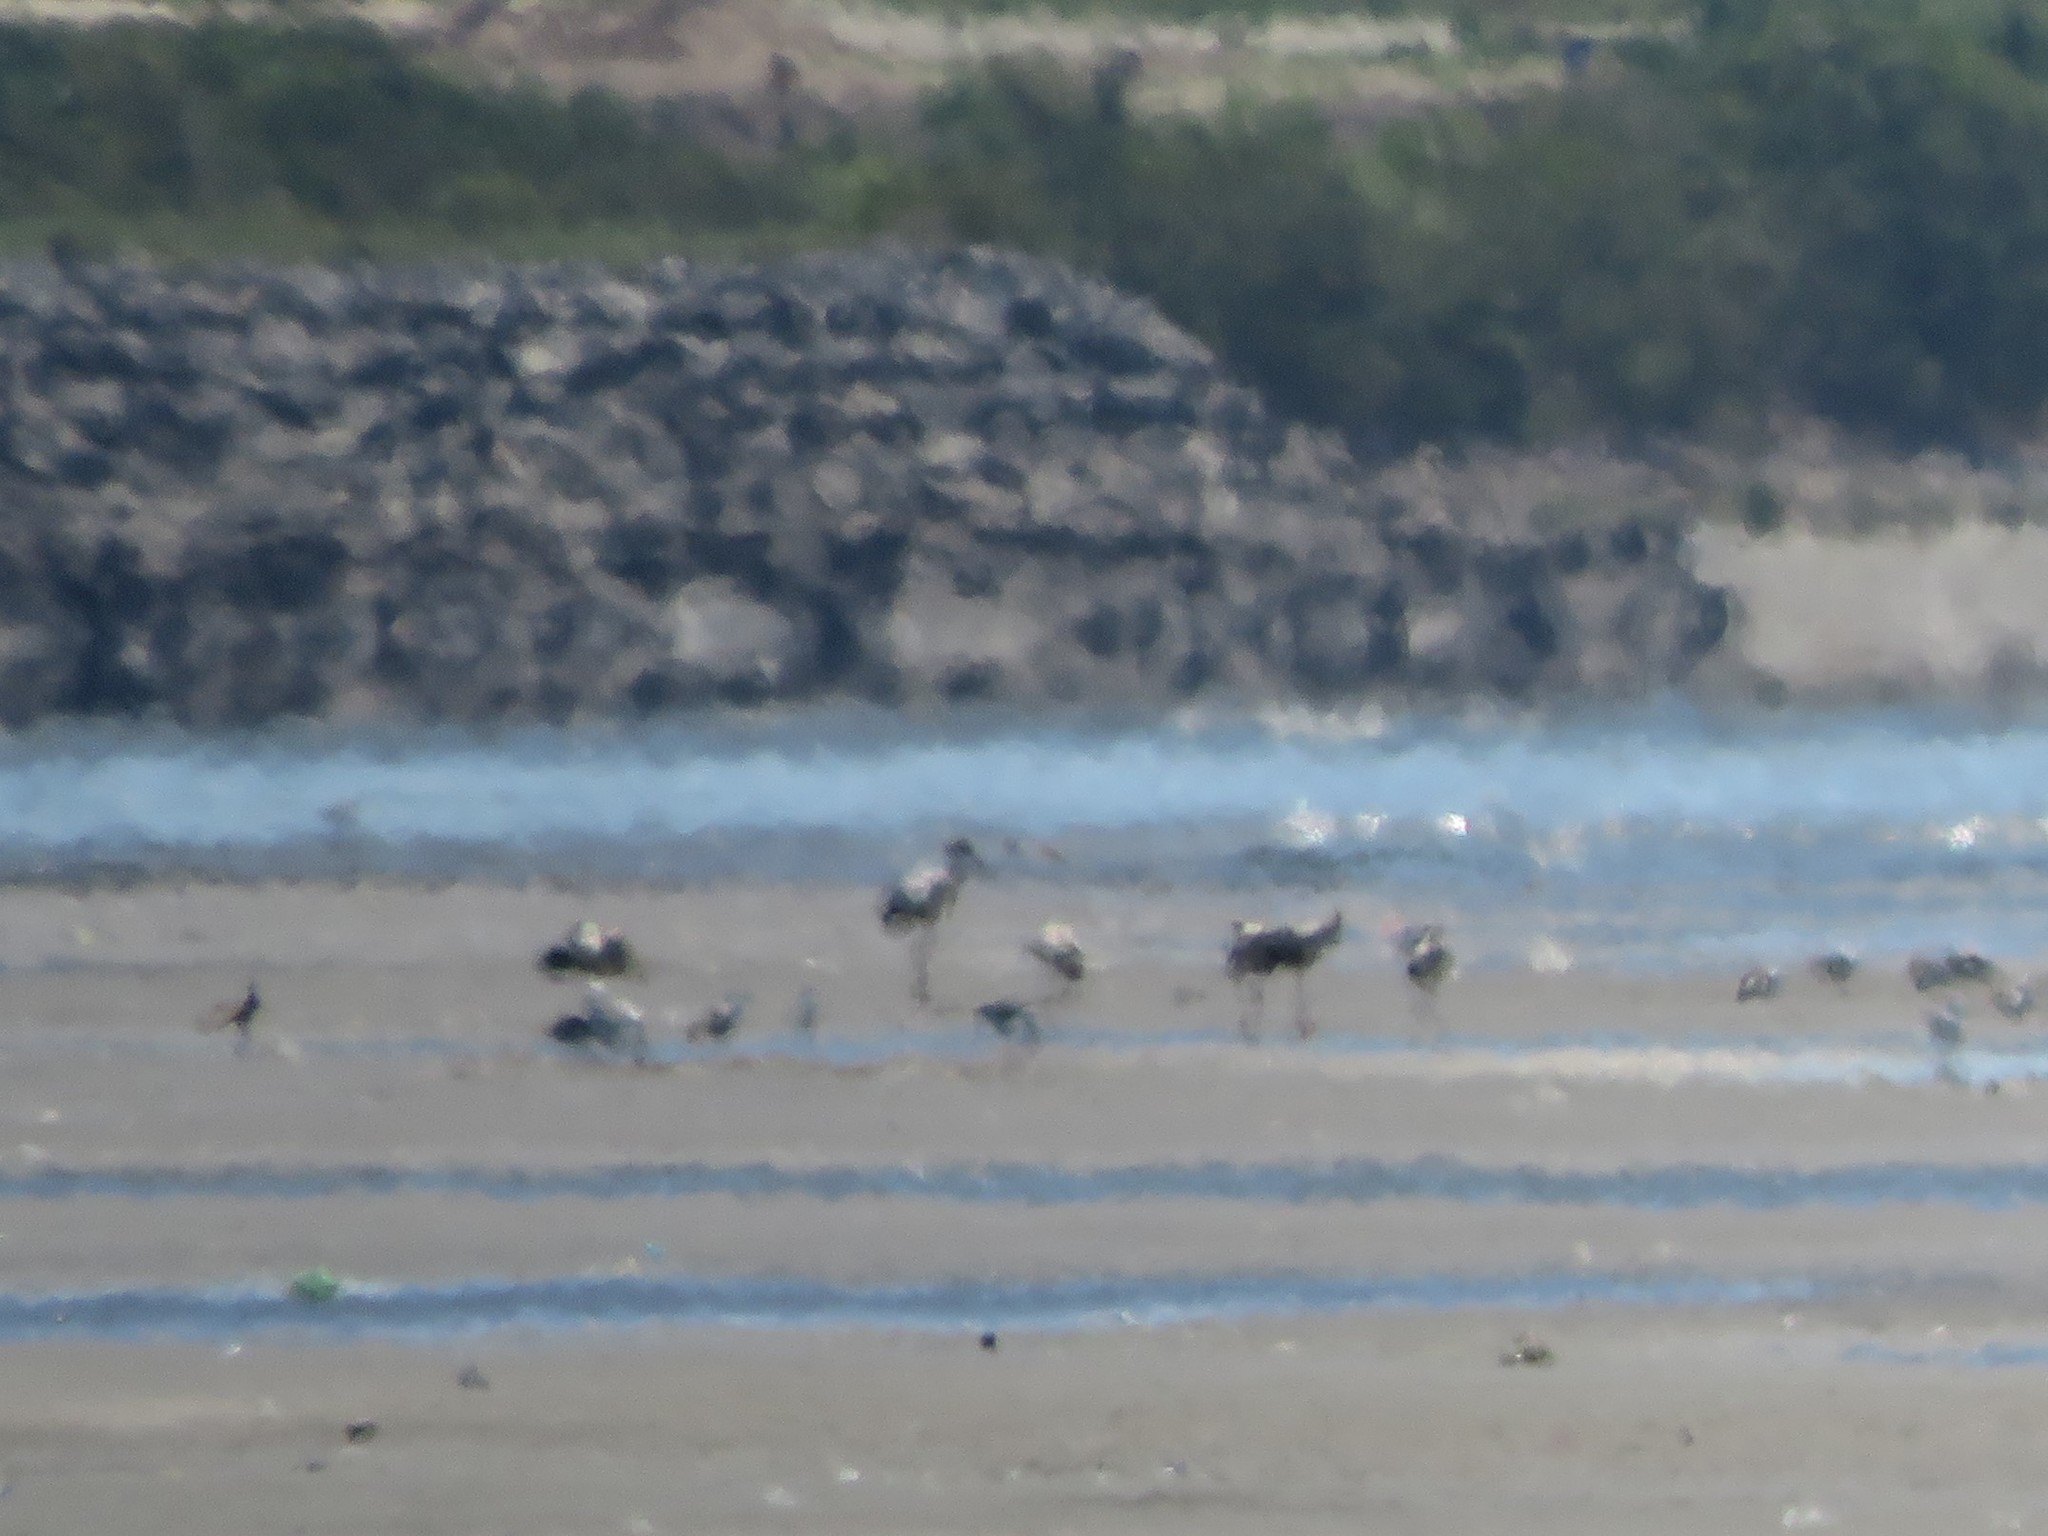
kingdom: Animalia
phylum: Chordata
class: Aves
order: Ciconiiformes
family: Ciconiidae
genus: Ciconia
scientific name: Ciconia maguari
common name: Maguari stork
